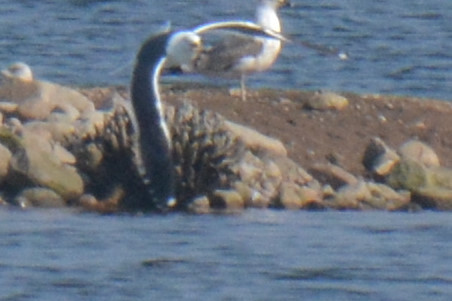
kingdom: Animalia
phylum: Chordata
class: Aves
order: Charadriiformes
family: Laridae
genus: Larus
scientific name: Larus fuscus
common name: Lesser black-backed gull
